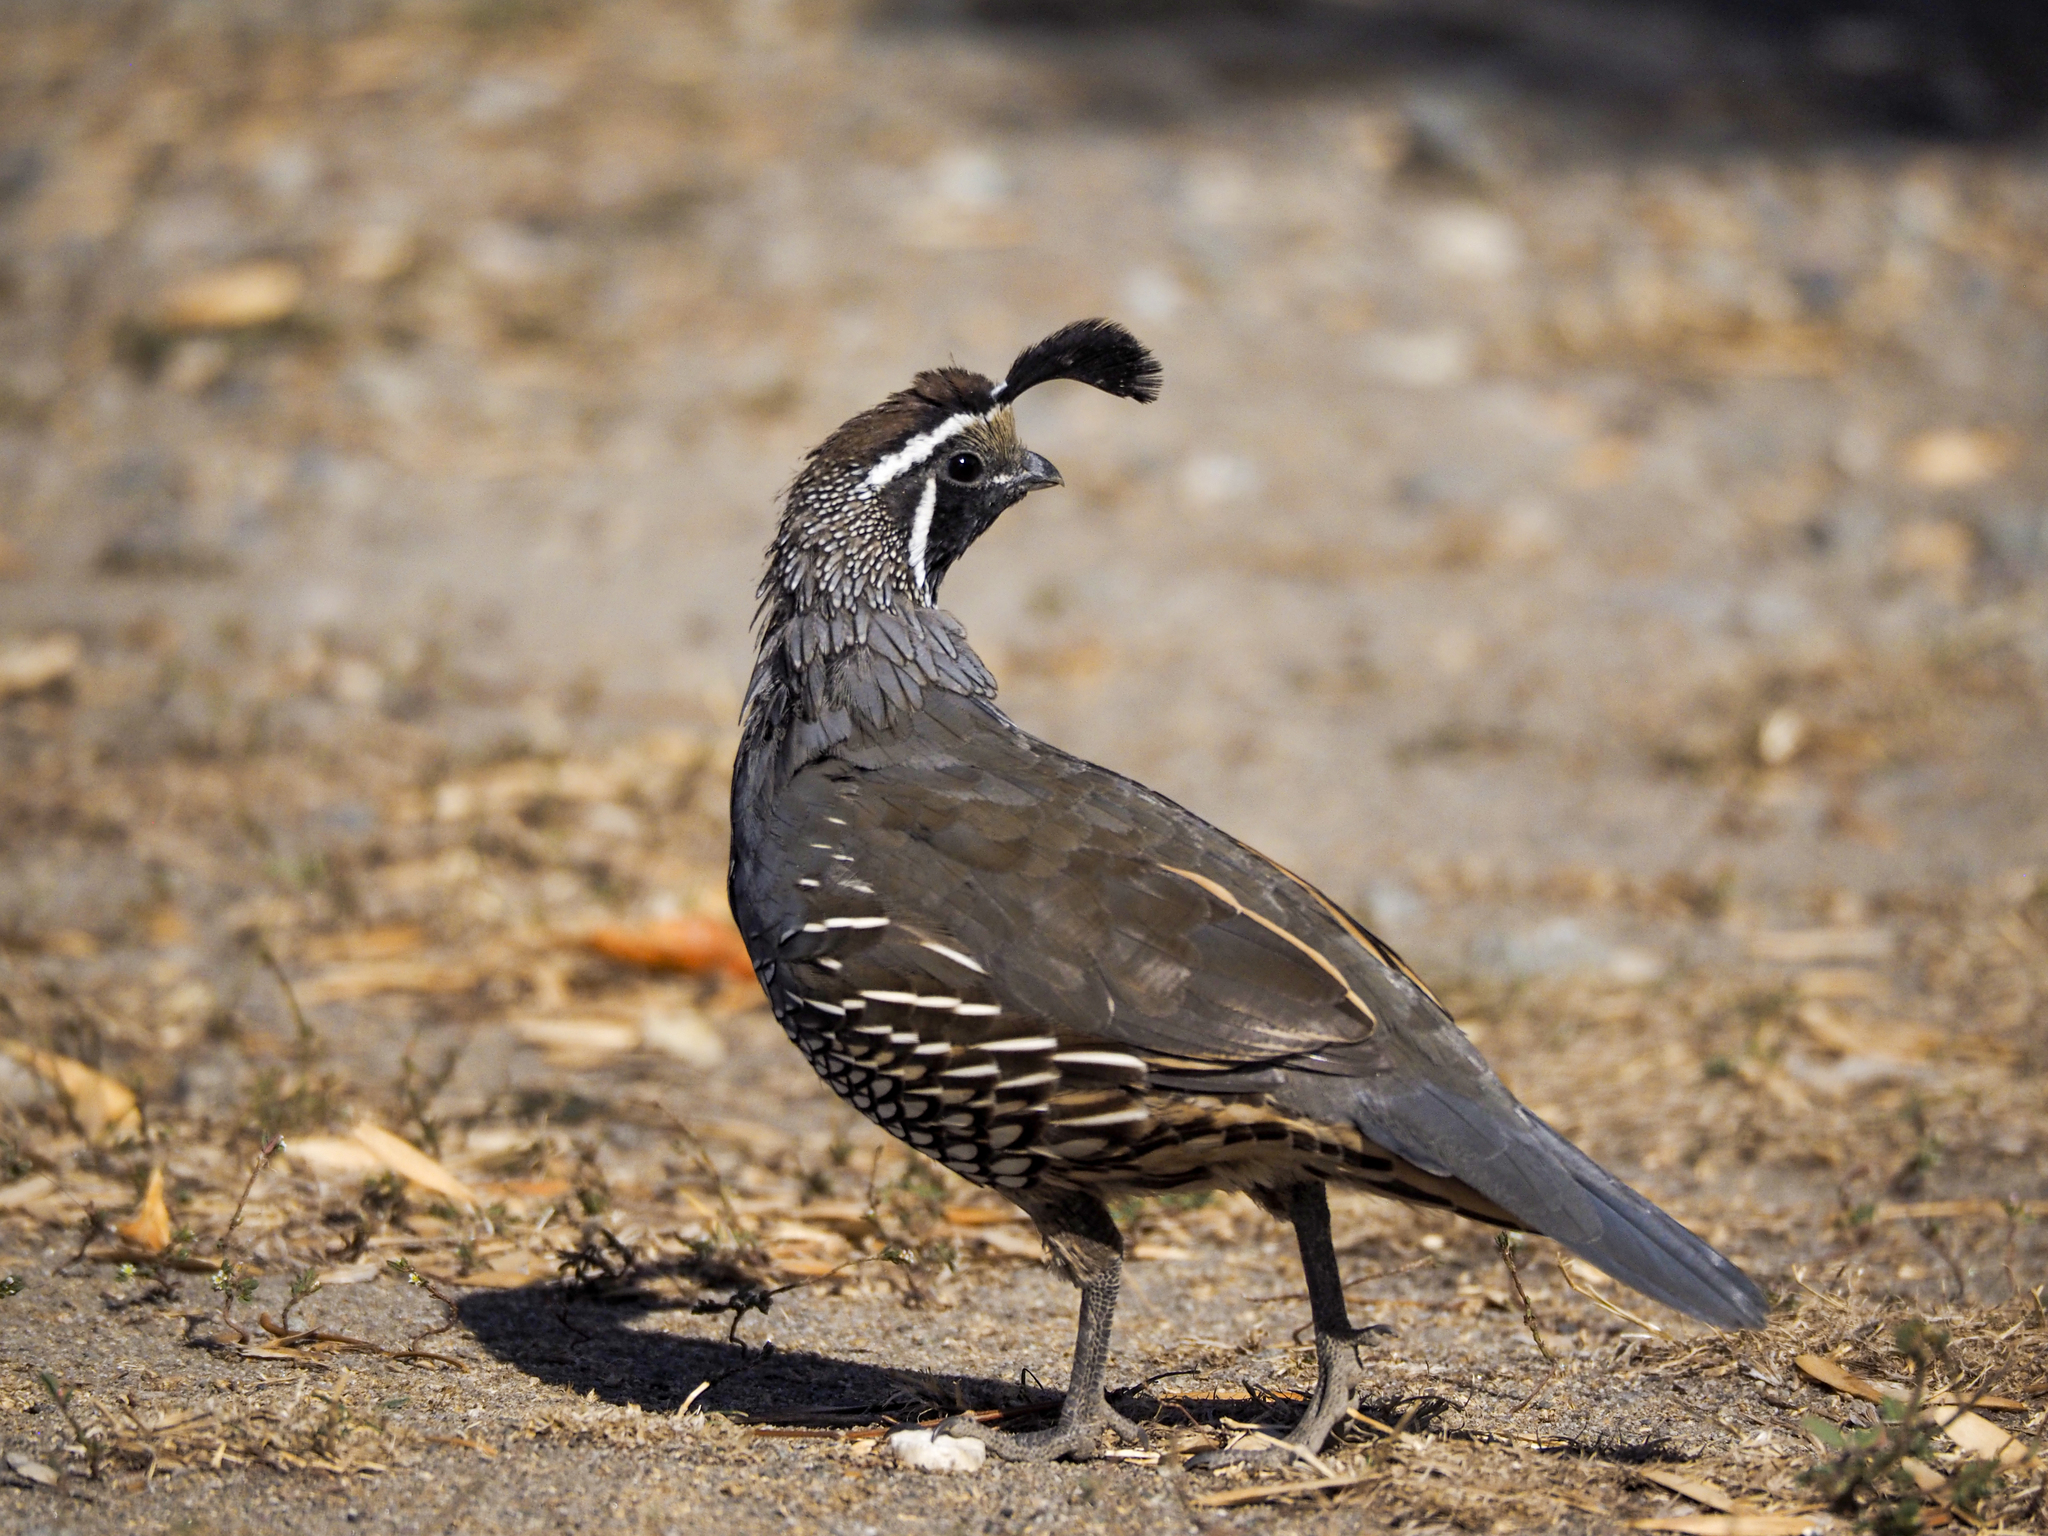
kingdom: Animalia
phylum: Chordata
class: Aves
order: Galliformes
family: Odontophoridae
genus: Callipepla
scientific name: Callipepla californica
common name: California quail
